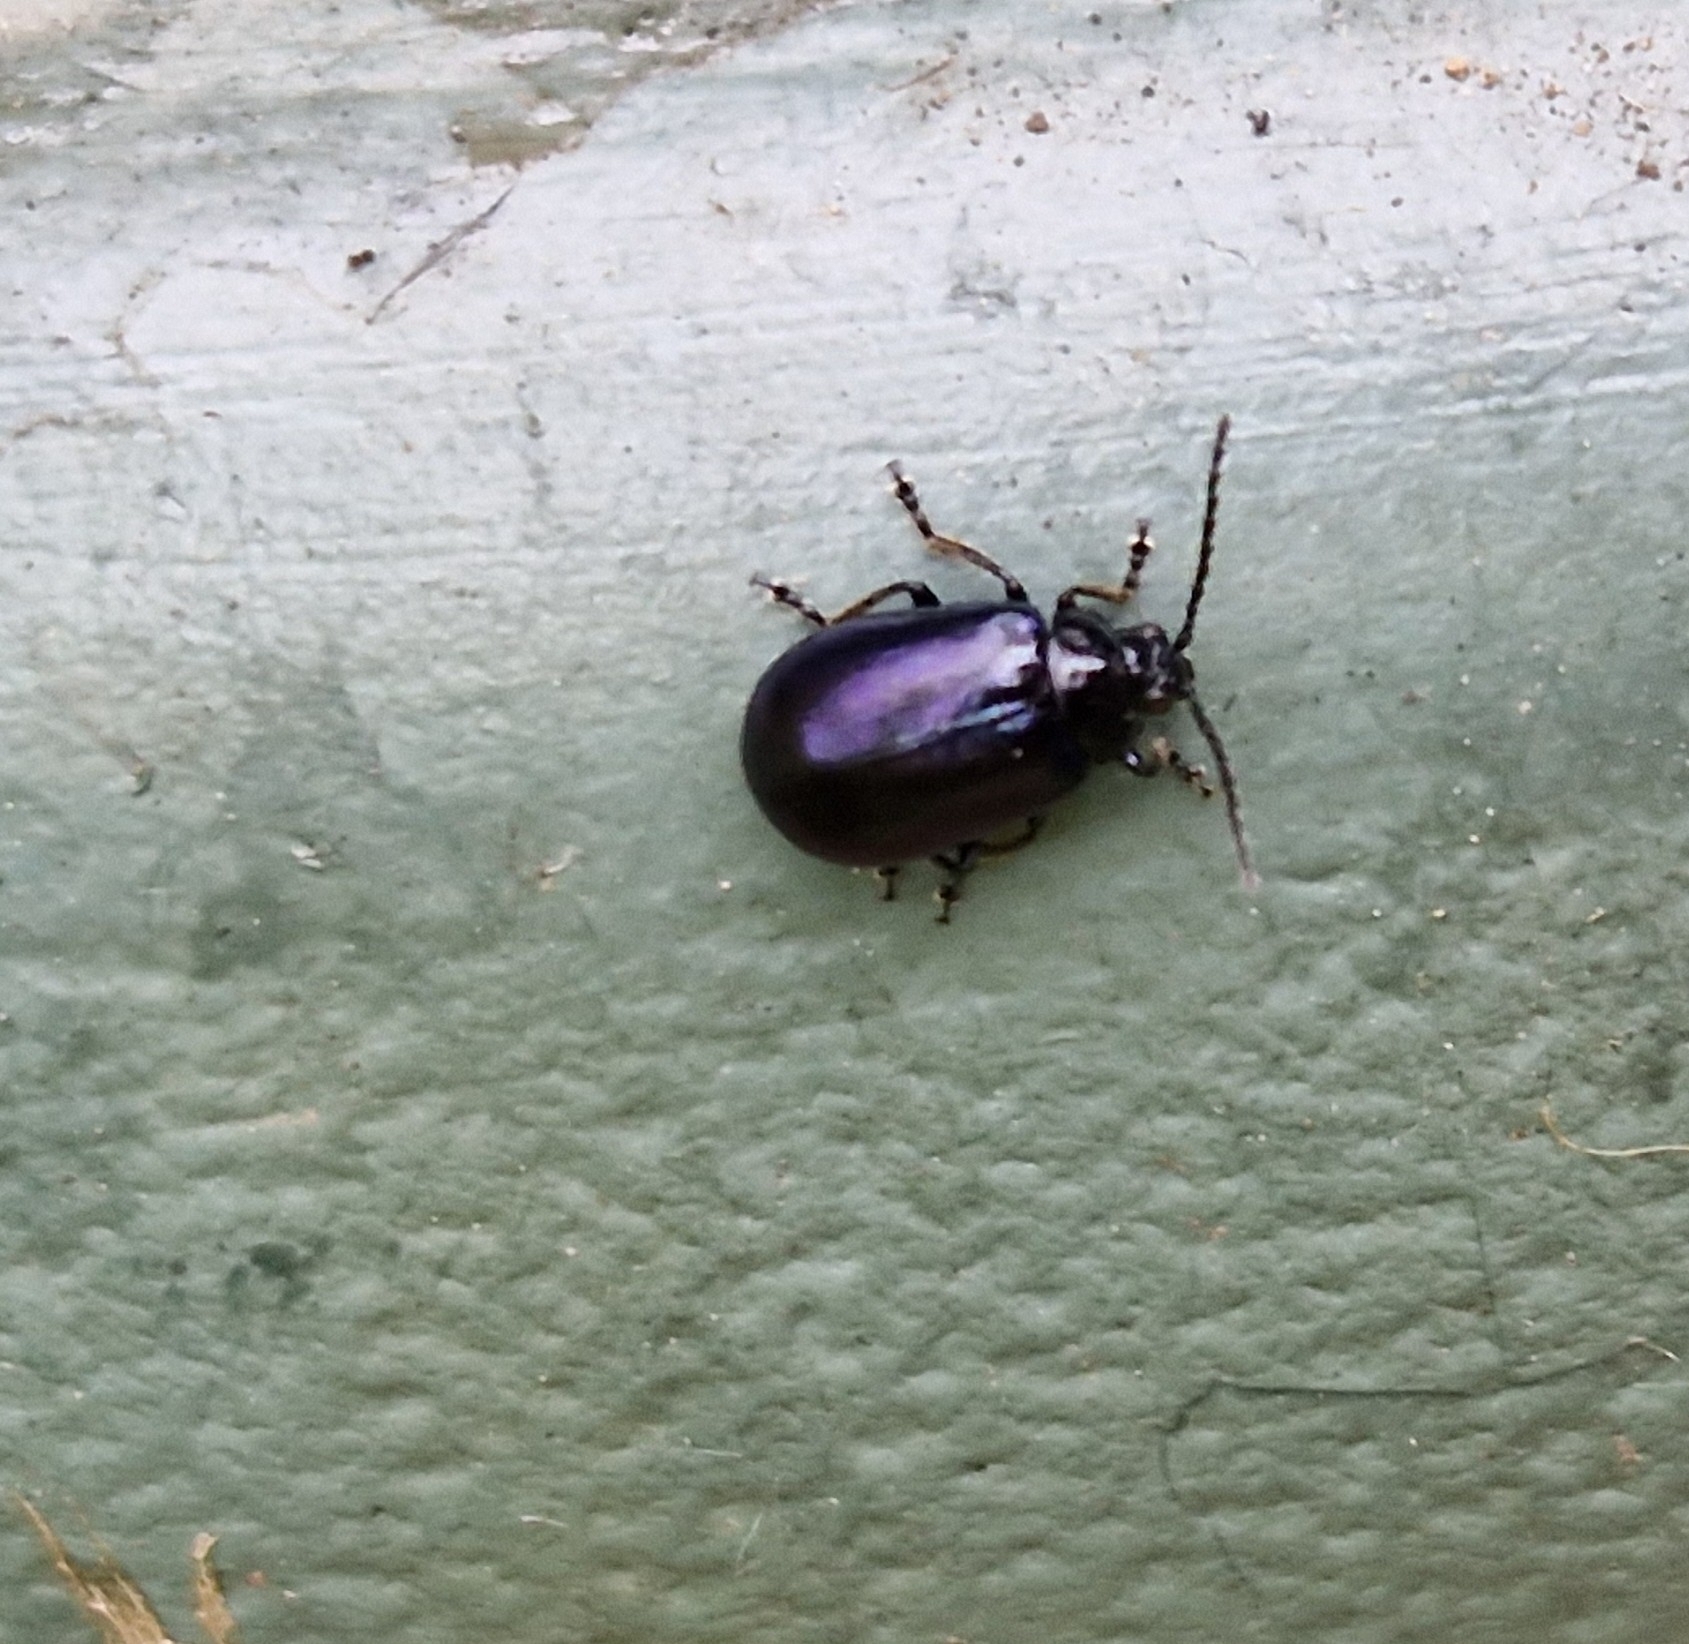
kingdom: Animalia
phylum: Arthropoda
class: Insecta
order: Coleoptera
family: Chrysomelidae
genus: Agelastica
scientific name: Agelastica alni
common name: Alder leaf beetle
